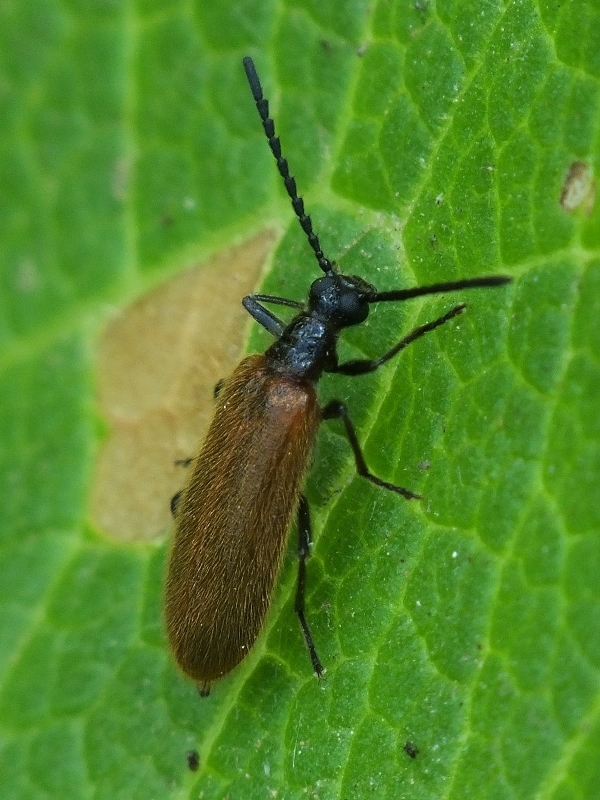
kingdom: Animalia
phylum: Arthropoda
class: Insecta
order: Coleoptera
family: Tenebrionidae
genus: Lagria
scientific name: Lagria hirta
